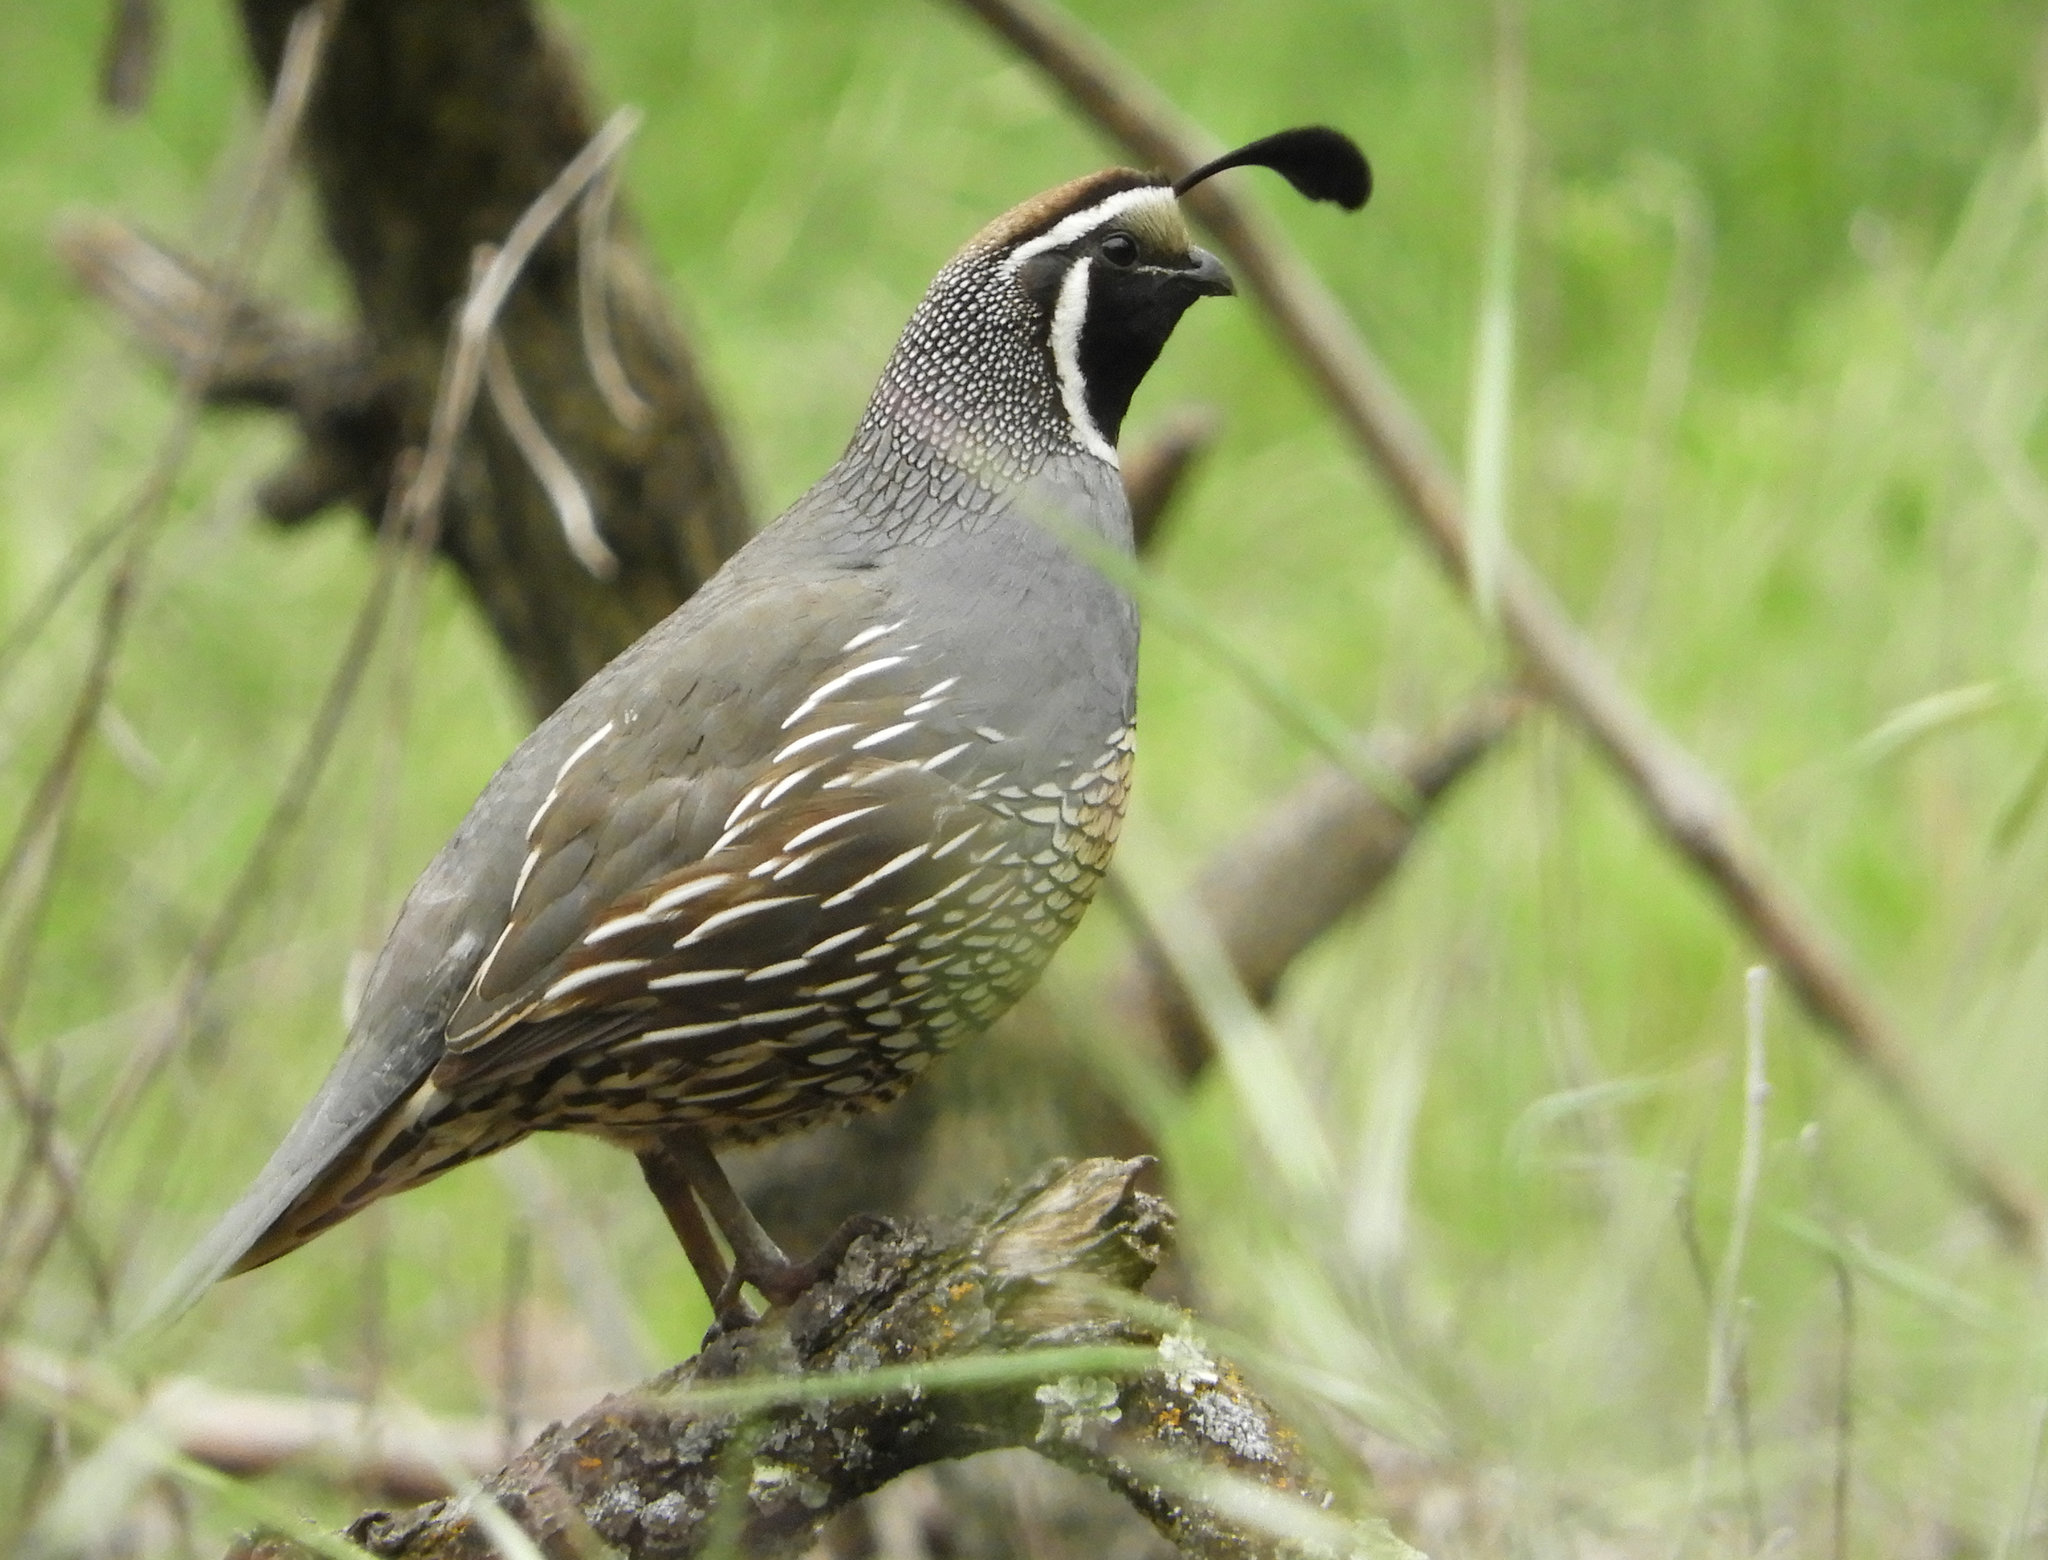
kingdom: Animalia
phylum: Chordata
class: Aves
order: Galliformes
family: Odontophoridae
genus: Callipepla
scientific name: Callipepla californica
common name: California quail
